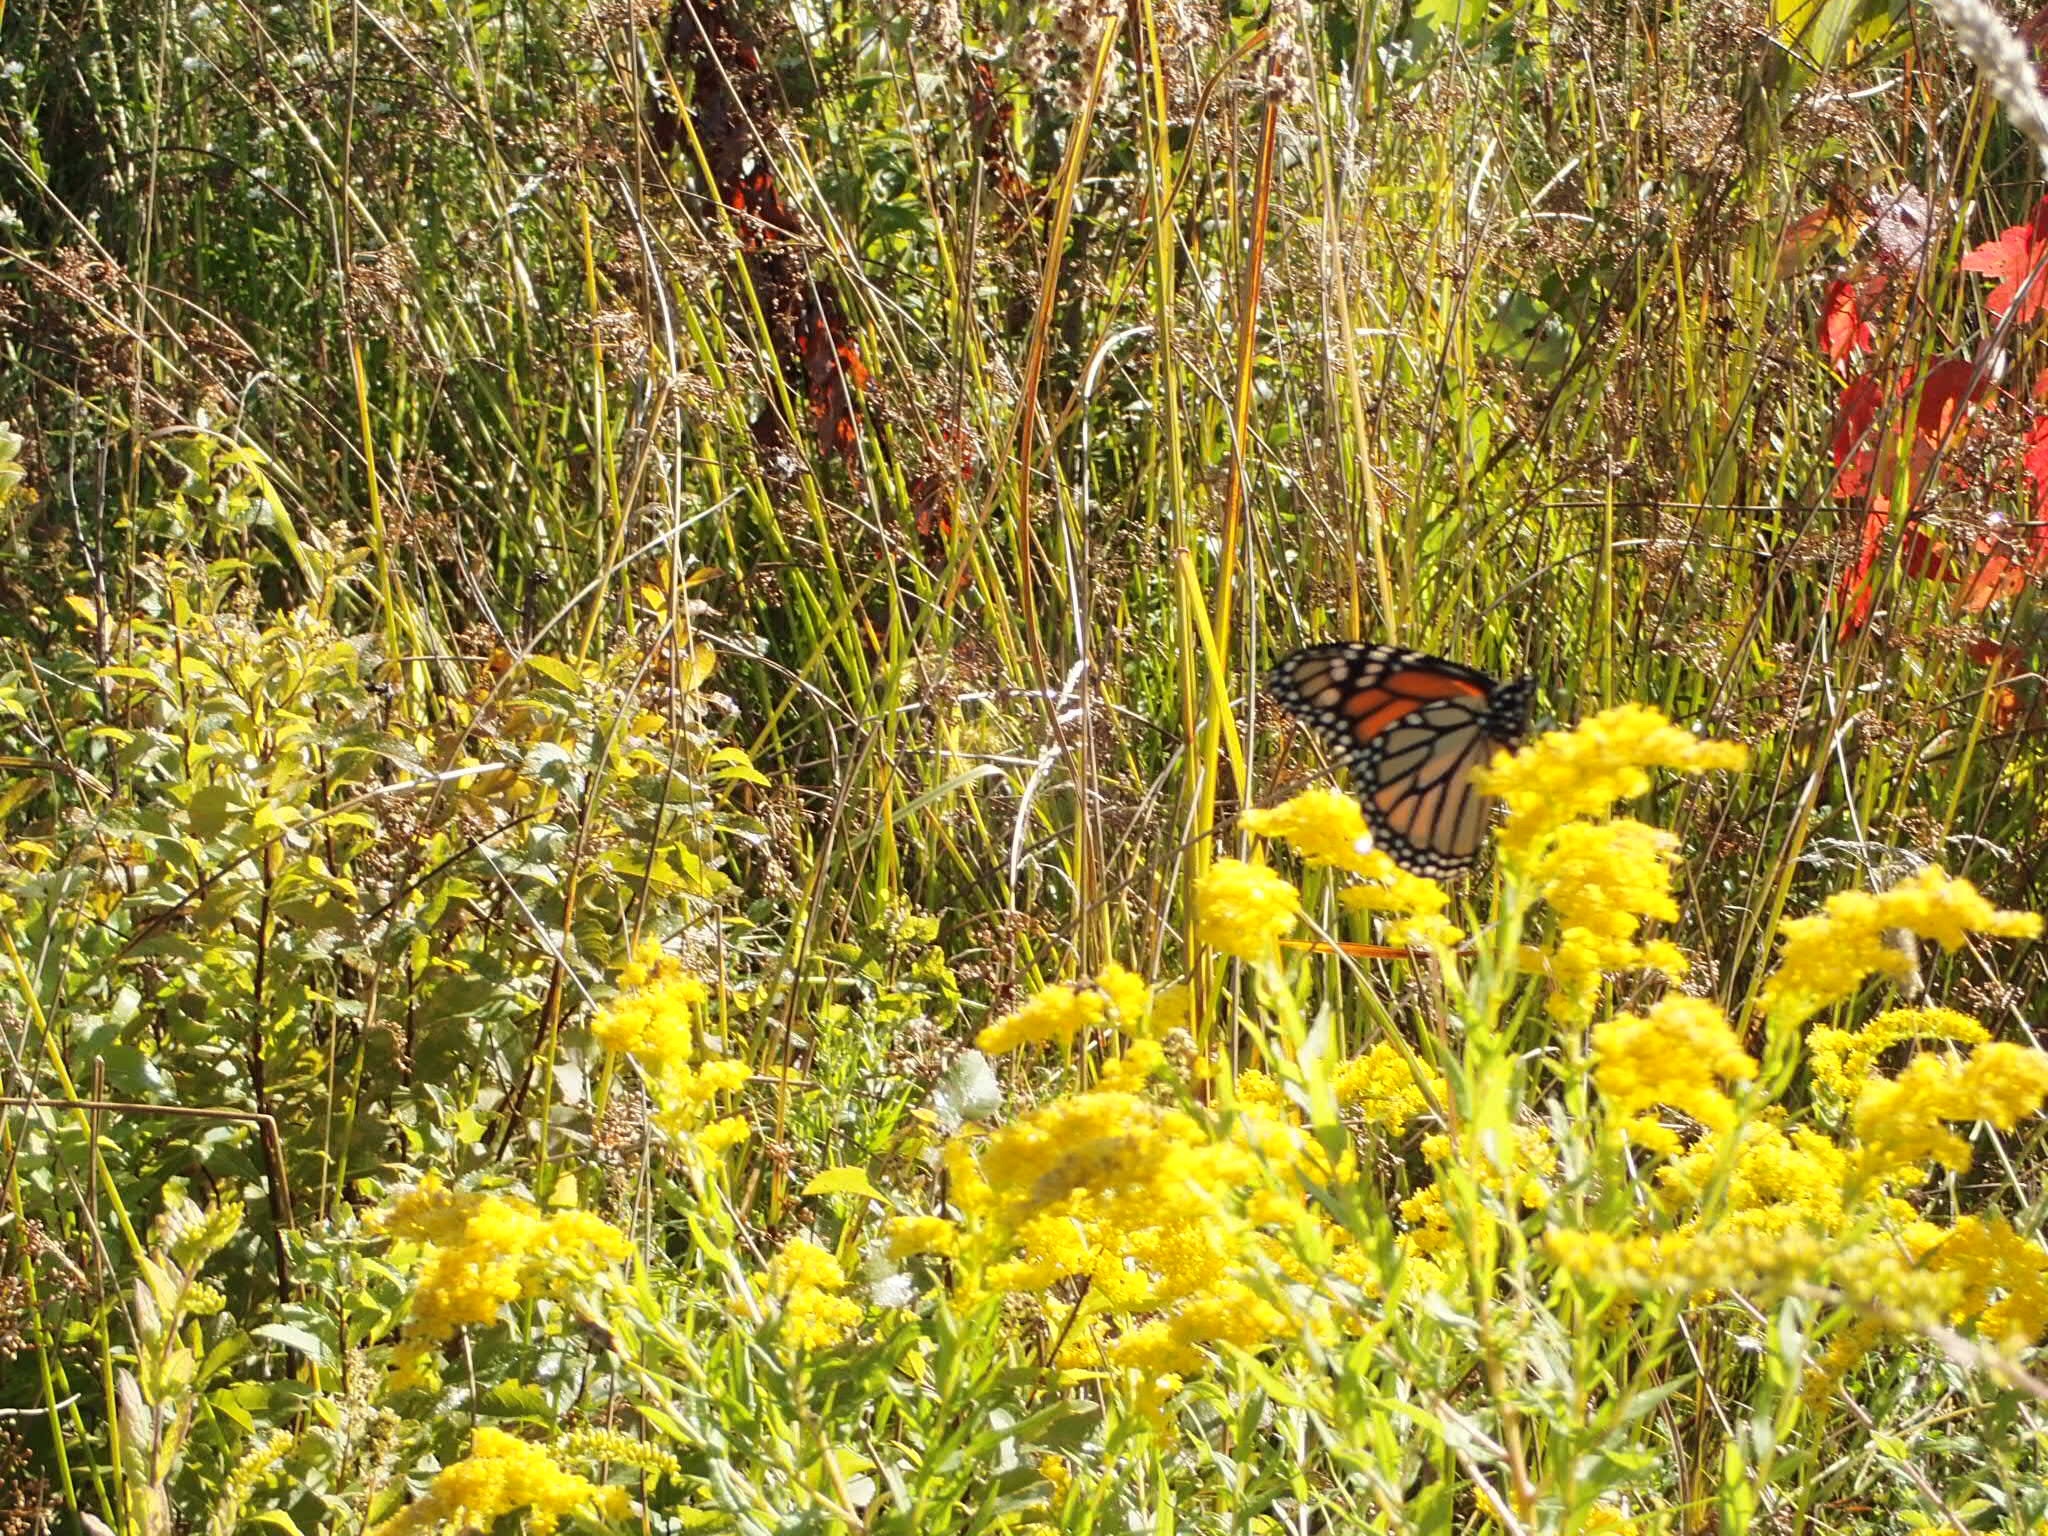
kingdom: Animalia
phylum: Arthropoda
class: Insecta
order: Lepidoptera
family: Nymphalidae
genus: Danaus
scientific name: Danaus plexippus
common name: Monarch
